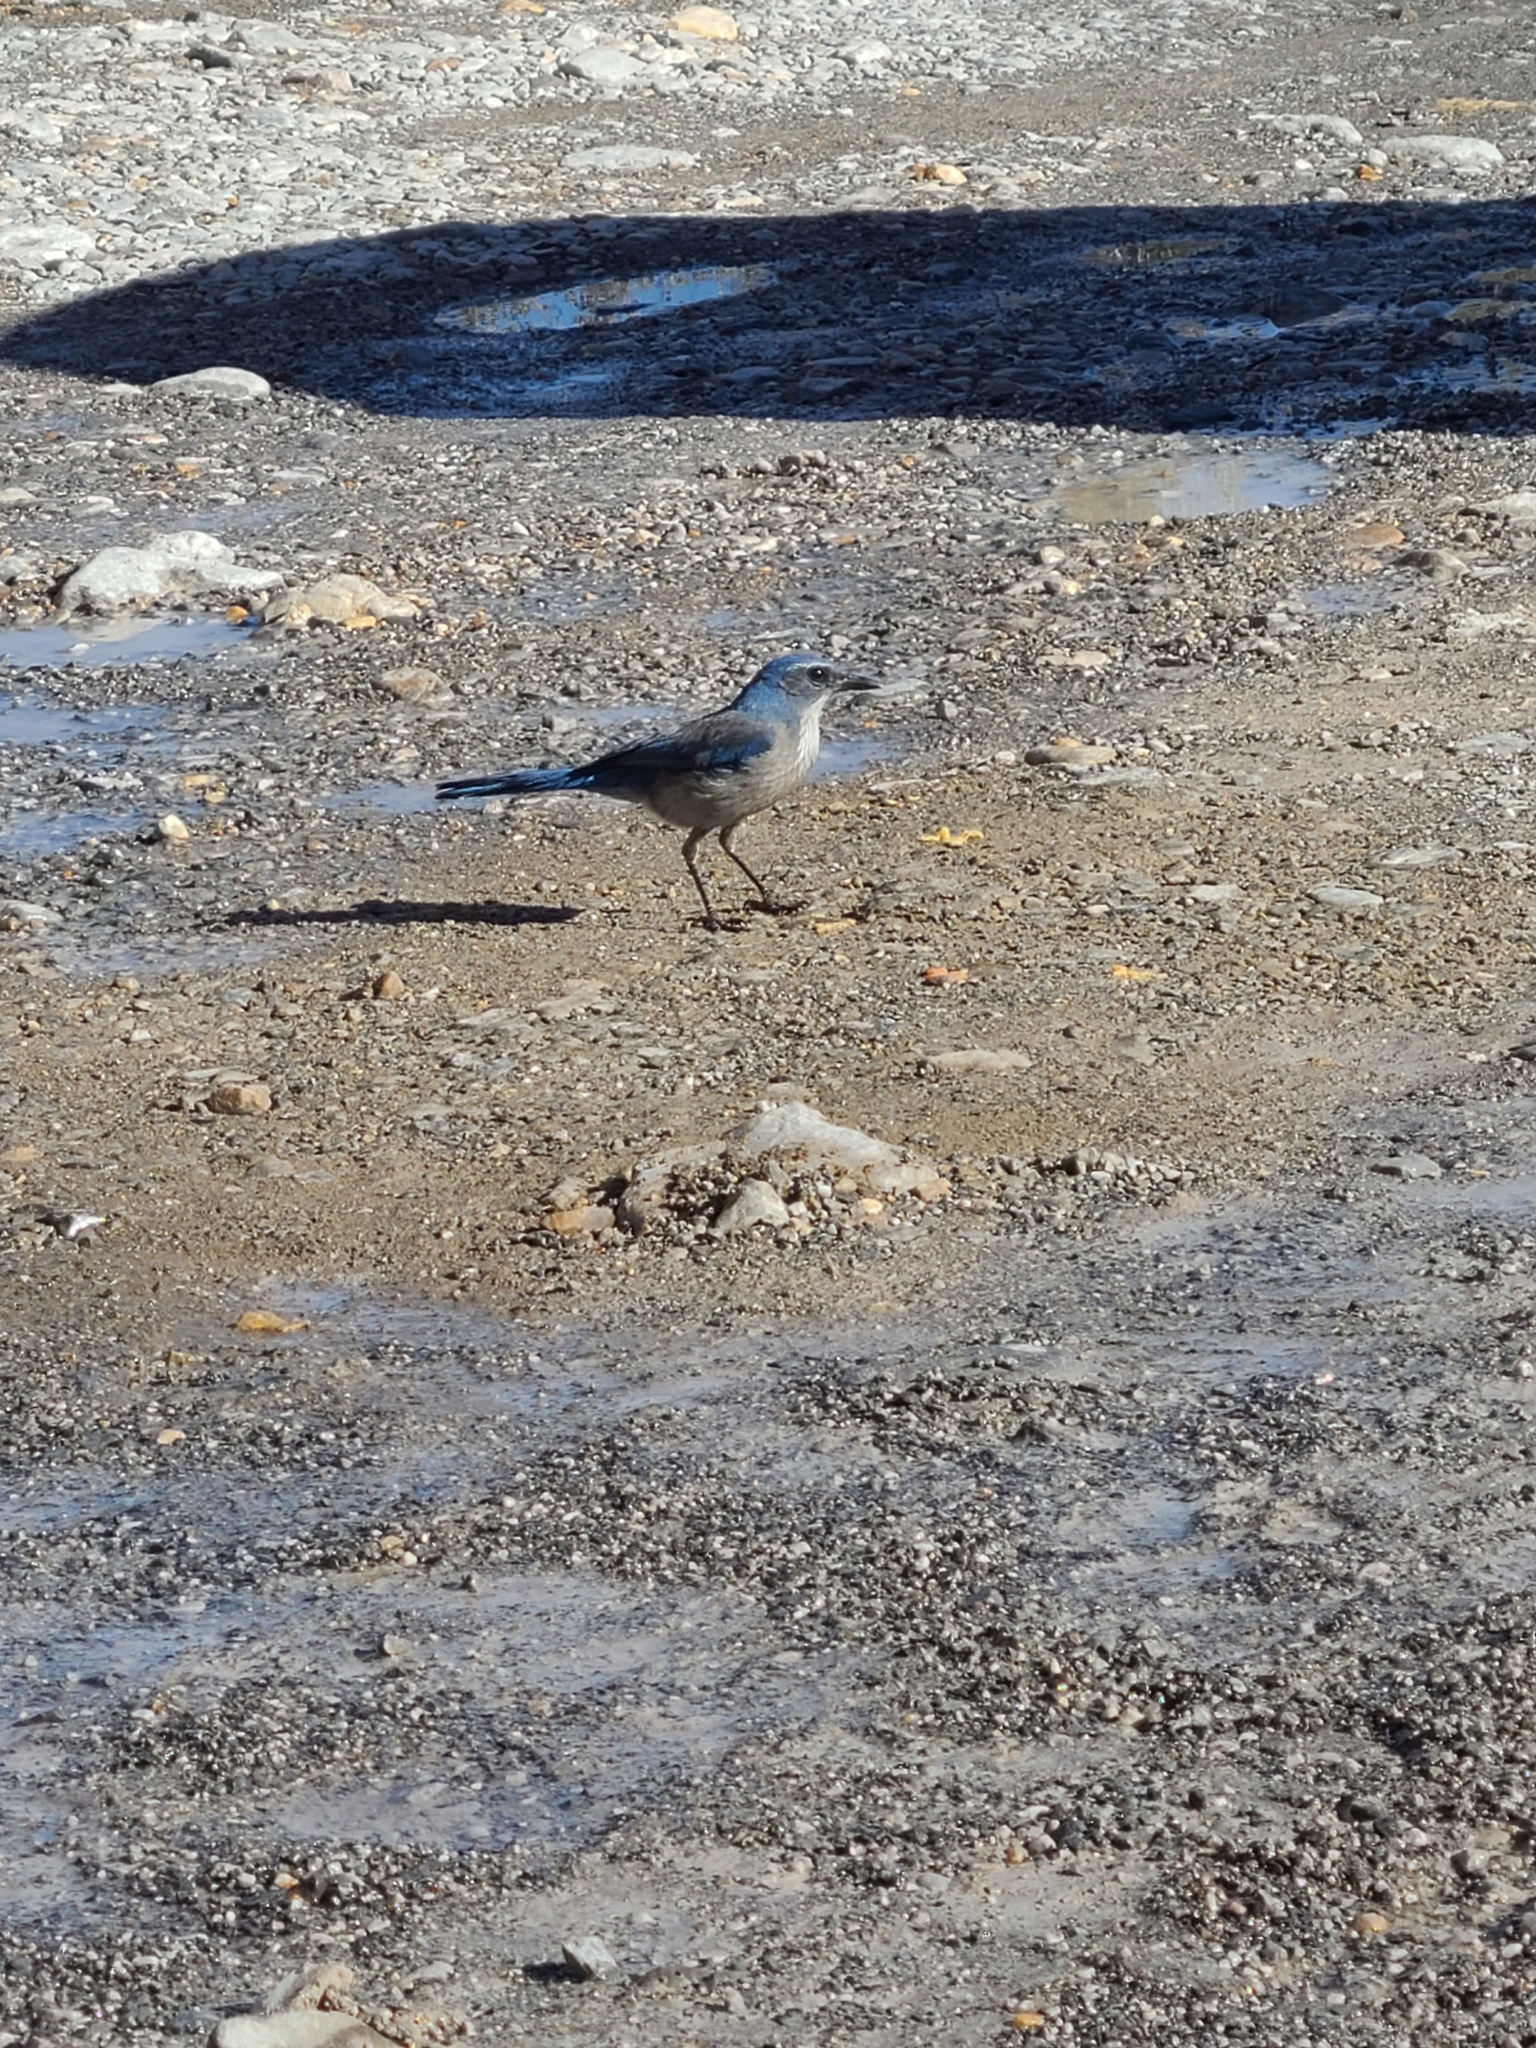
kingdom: Animalia
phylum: Chordata
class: Aves
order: Passeriformes
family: Corvidae
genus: Aphelocoma
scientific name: Aphelocoma woodhouseii
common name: Woodhouse's scrub-jay
